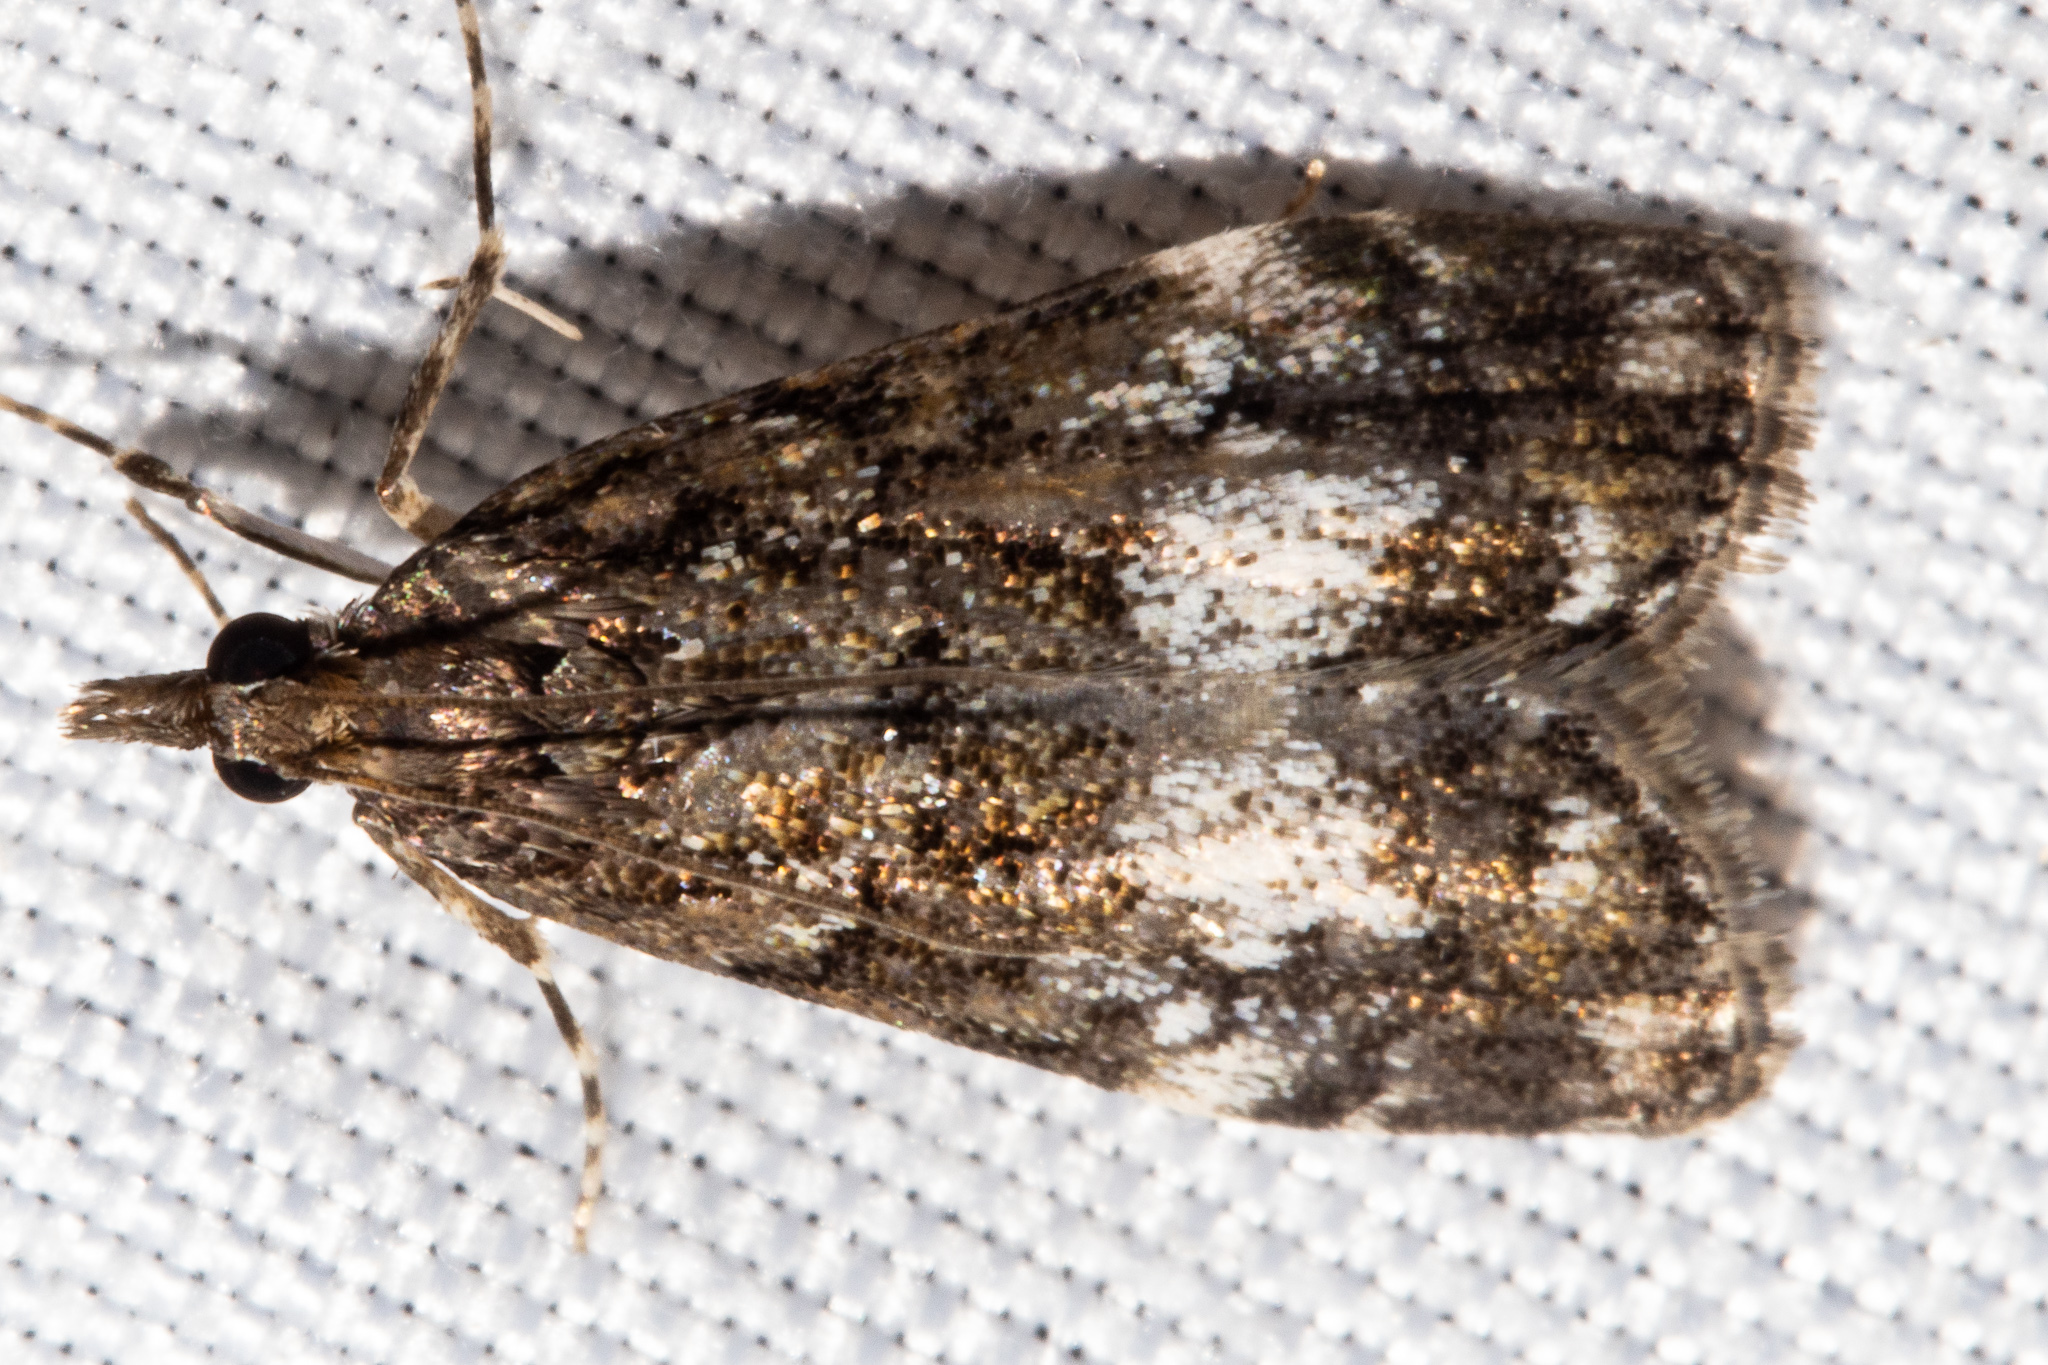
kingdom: Animalia
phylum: Arthropoda
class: Insecta
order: Lepidoptera
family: Crambidae
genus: Eudonia
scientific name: Eudonia dinodes
